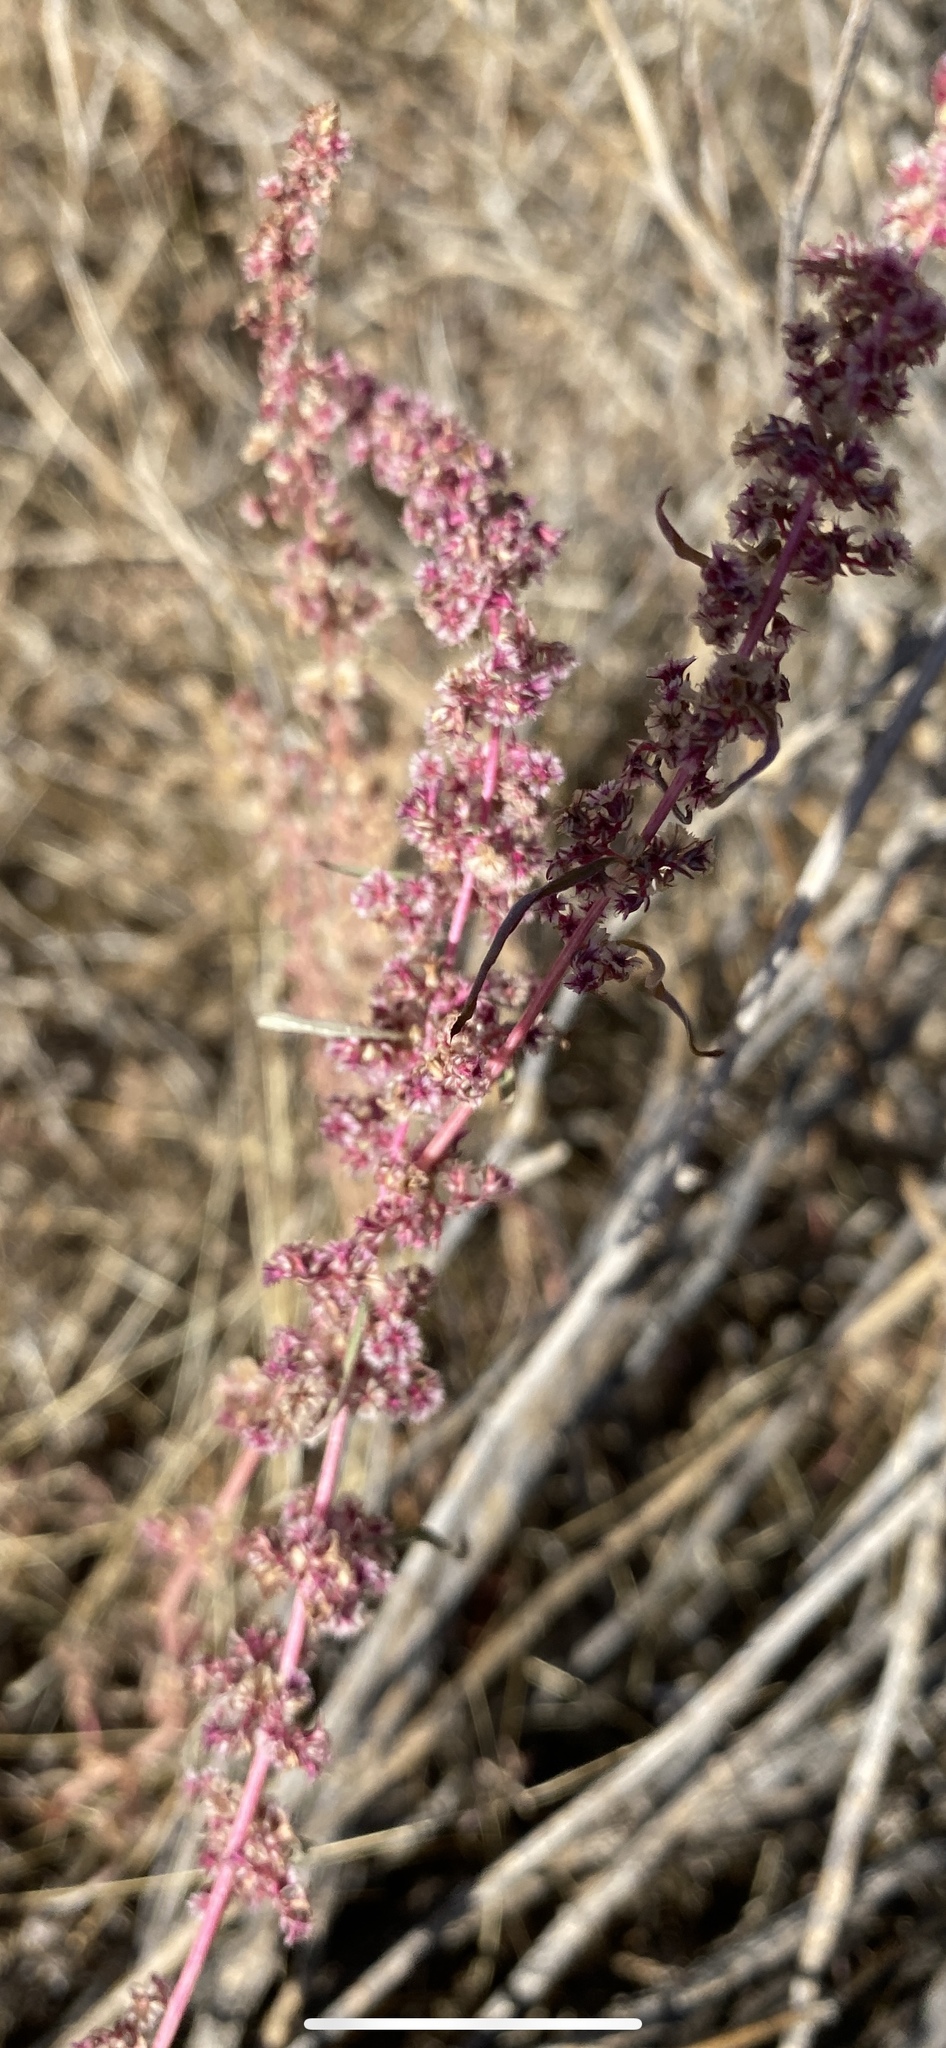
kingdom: Plantae
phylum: Tracheophyta
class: Magnoliopsida
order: Caryophyllales
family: Amaranthaceae
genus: Amaranthus
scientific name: Amaranthus fimbriatus
